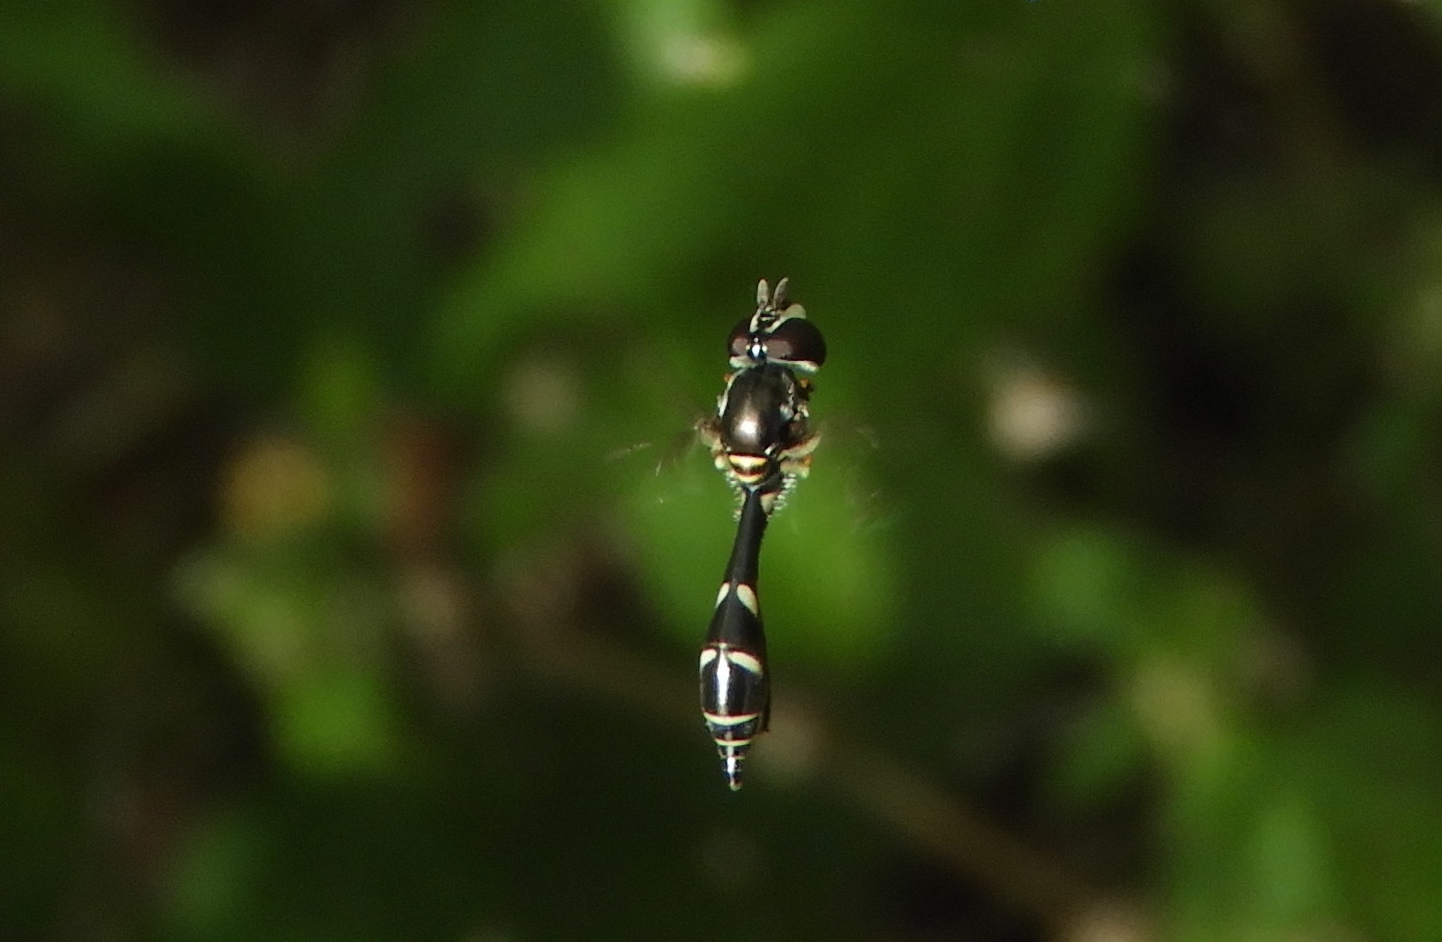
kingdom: Animalia
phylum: Arthropoda
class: Insecta
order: Diptera
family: Syrphidae
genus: Dioprosopa
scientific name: Dioprosopa clavatus
